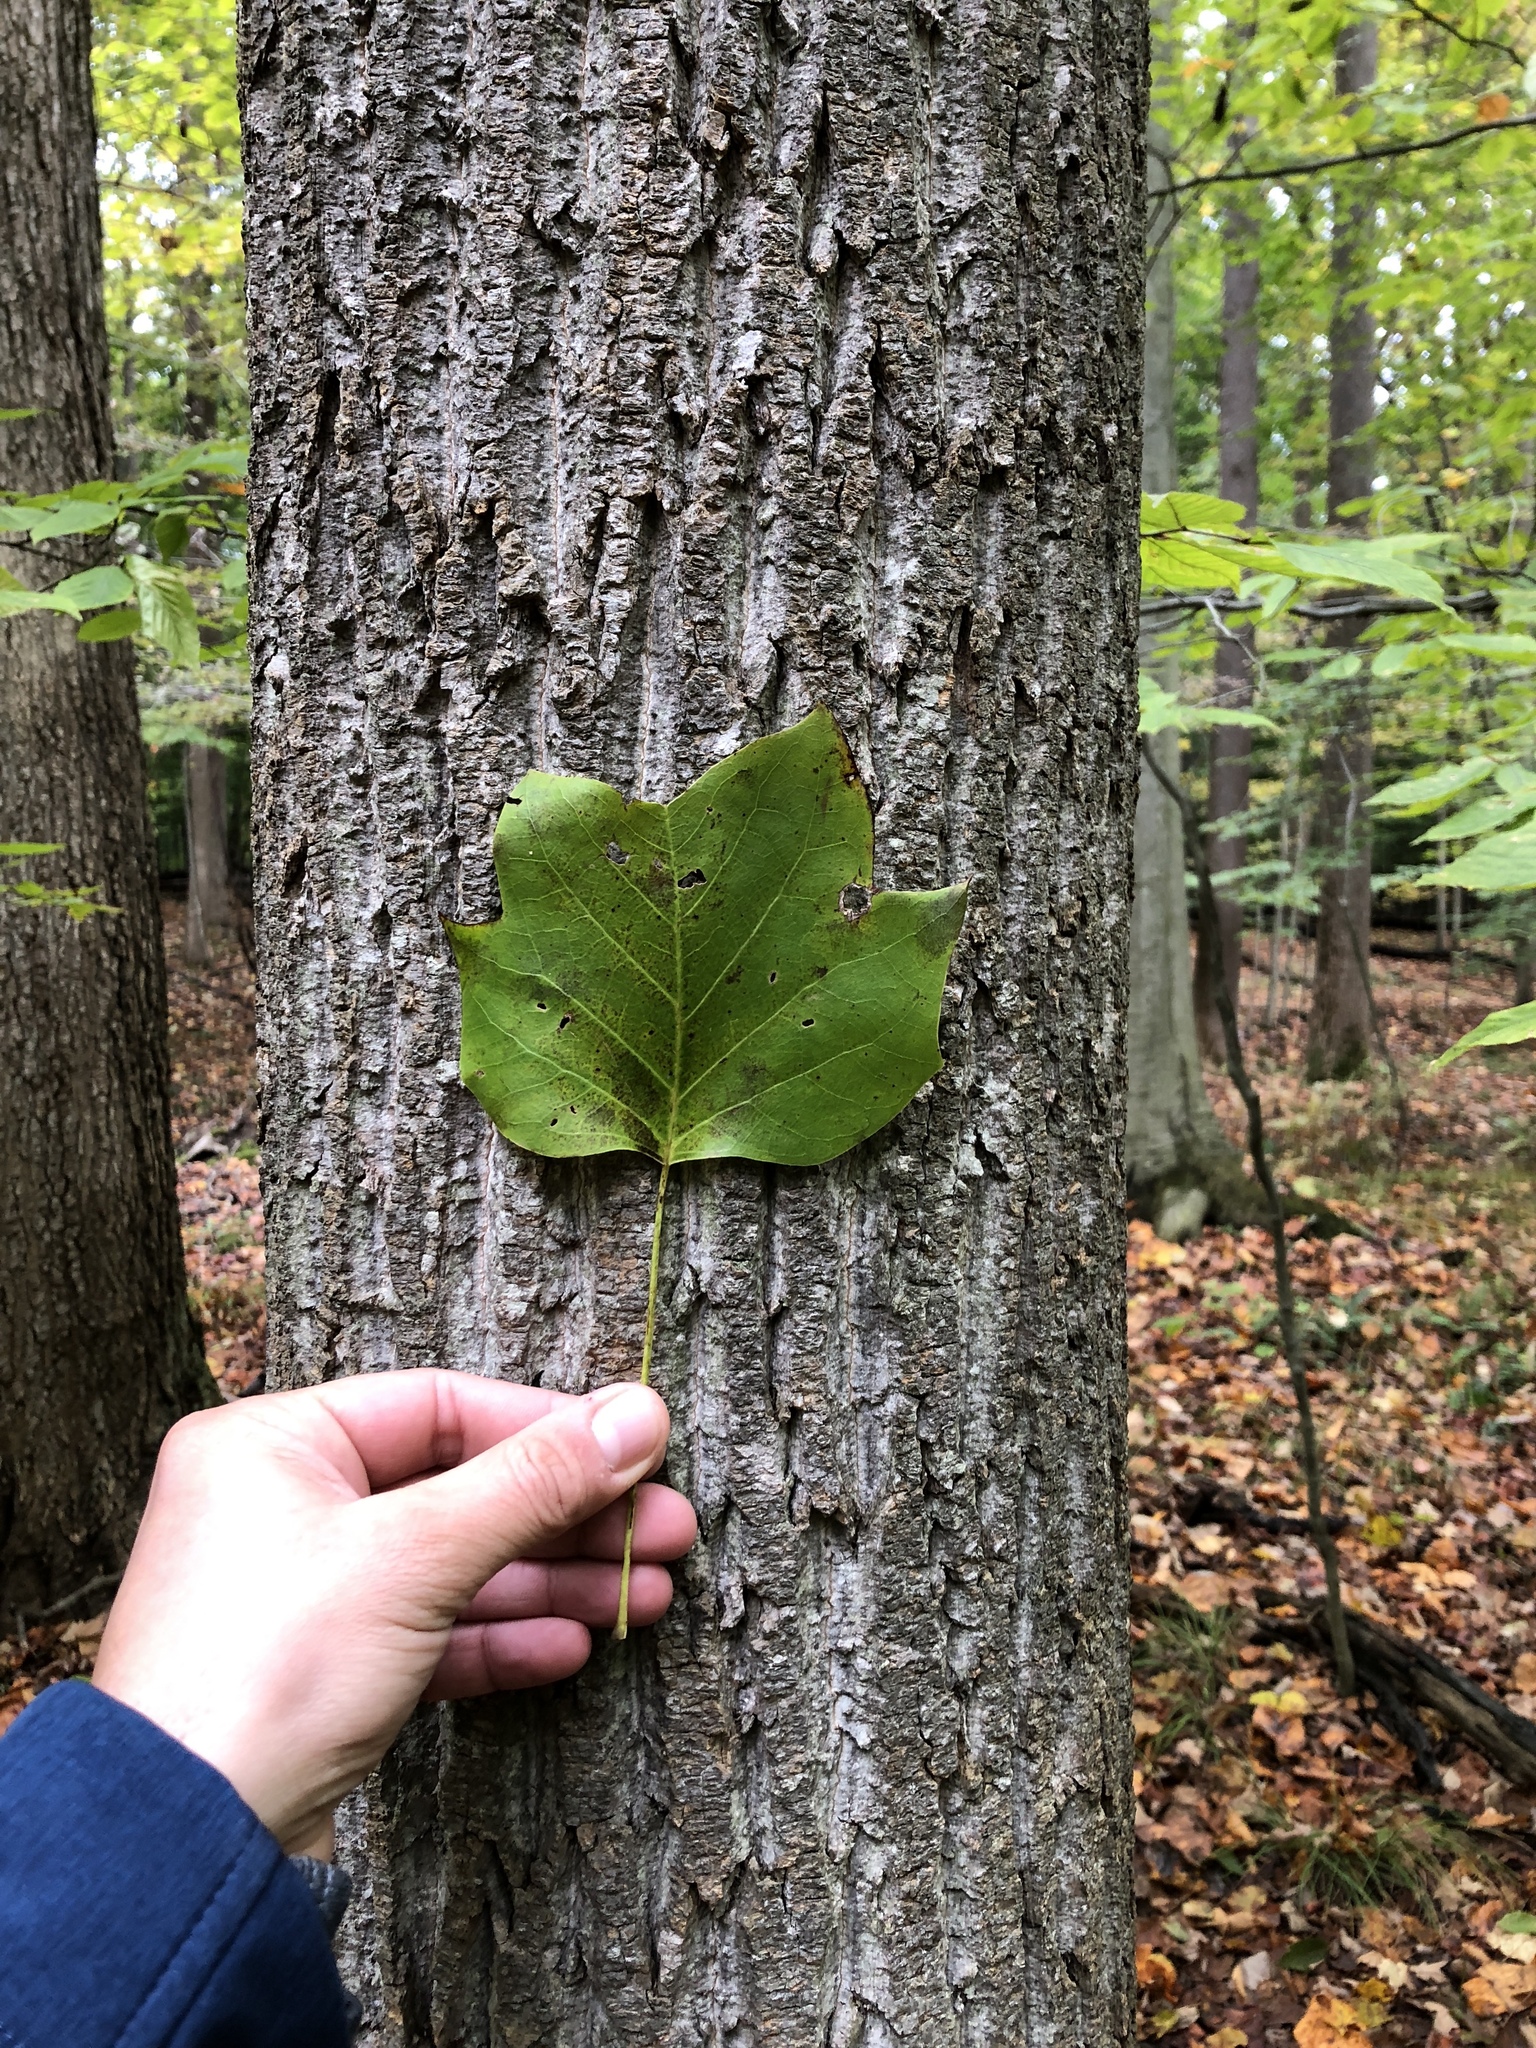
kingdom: Plantae
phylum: Tracheophyta
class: Magnoliopsida
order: Magnoliales
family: Magnoliaceae
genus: Liriodendron
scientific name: Liriodendron tulipifera
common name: Tulip tree
